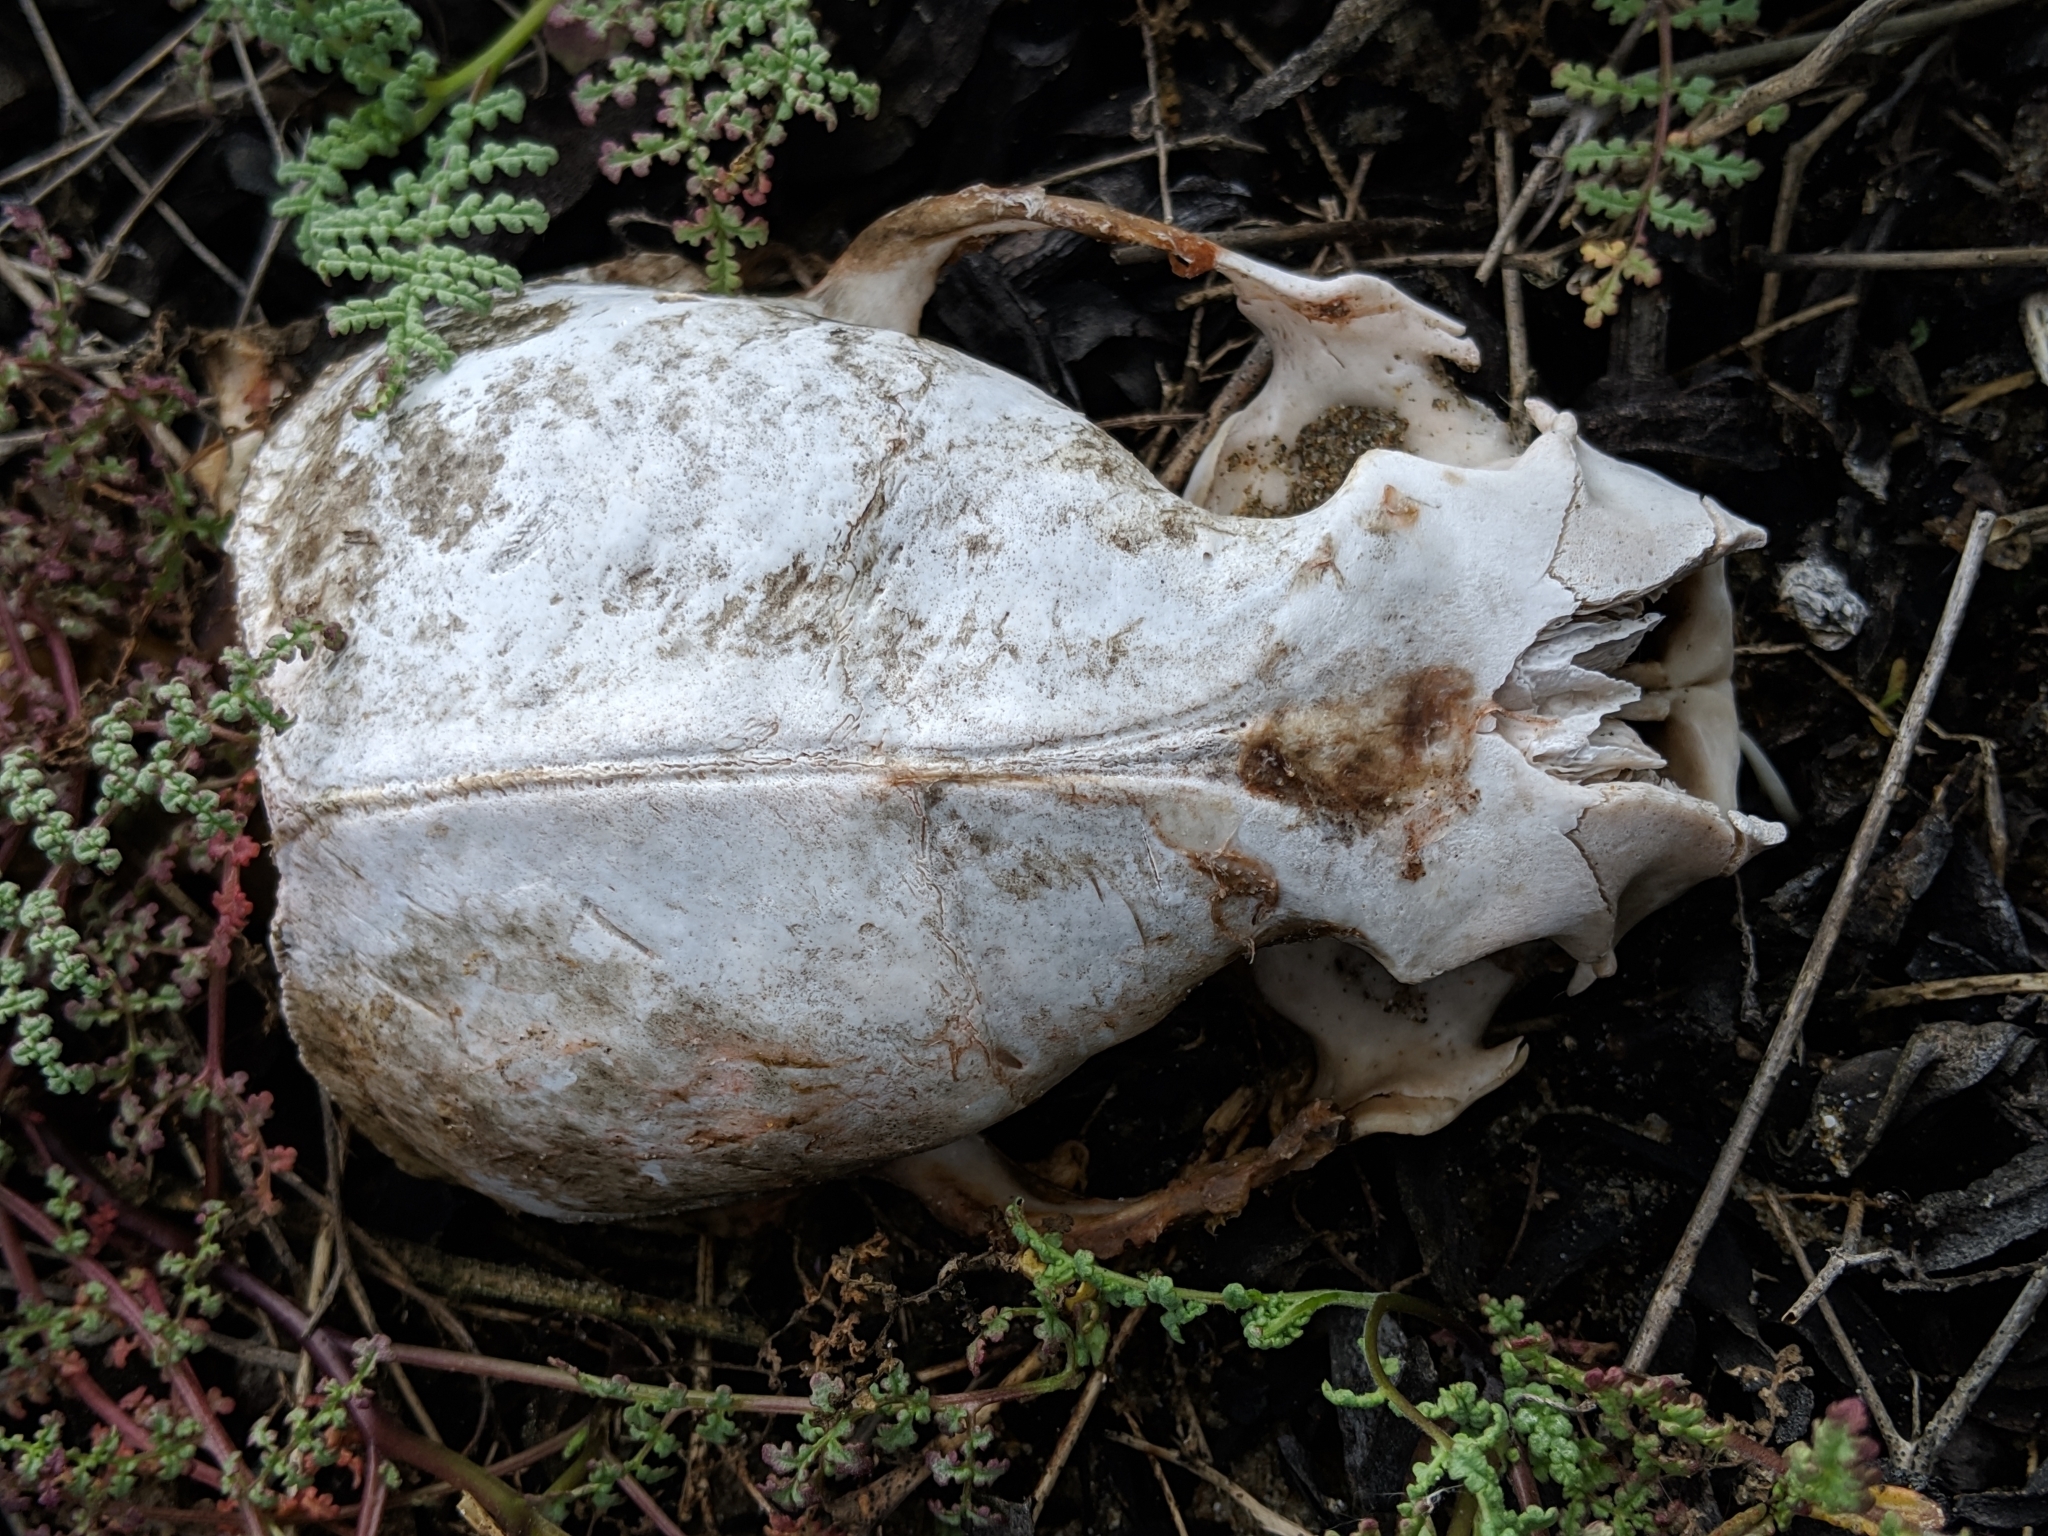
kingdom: Animalia
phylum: Chordata
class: Mammalia
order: Carnivora
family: Mustelidae
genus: Enhydra
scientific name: Enhydra lutris
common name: Sea otter
